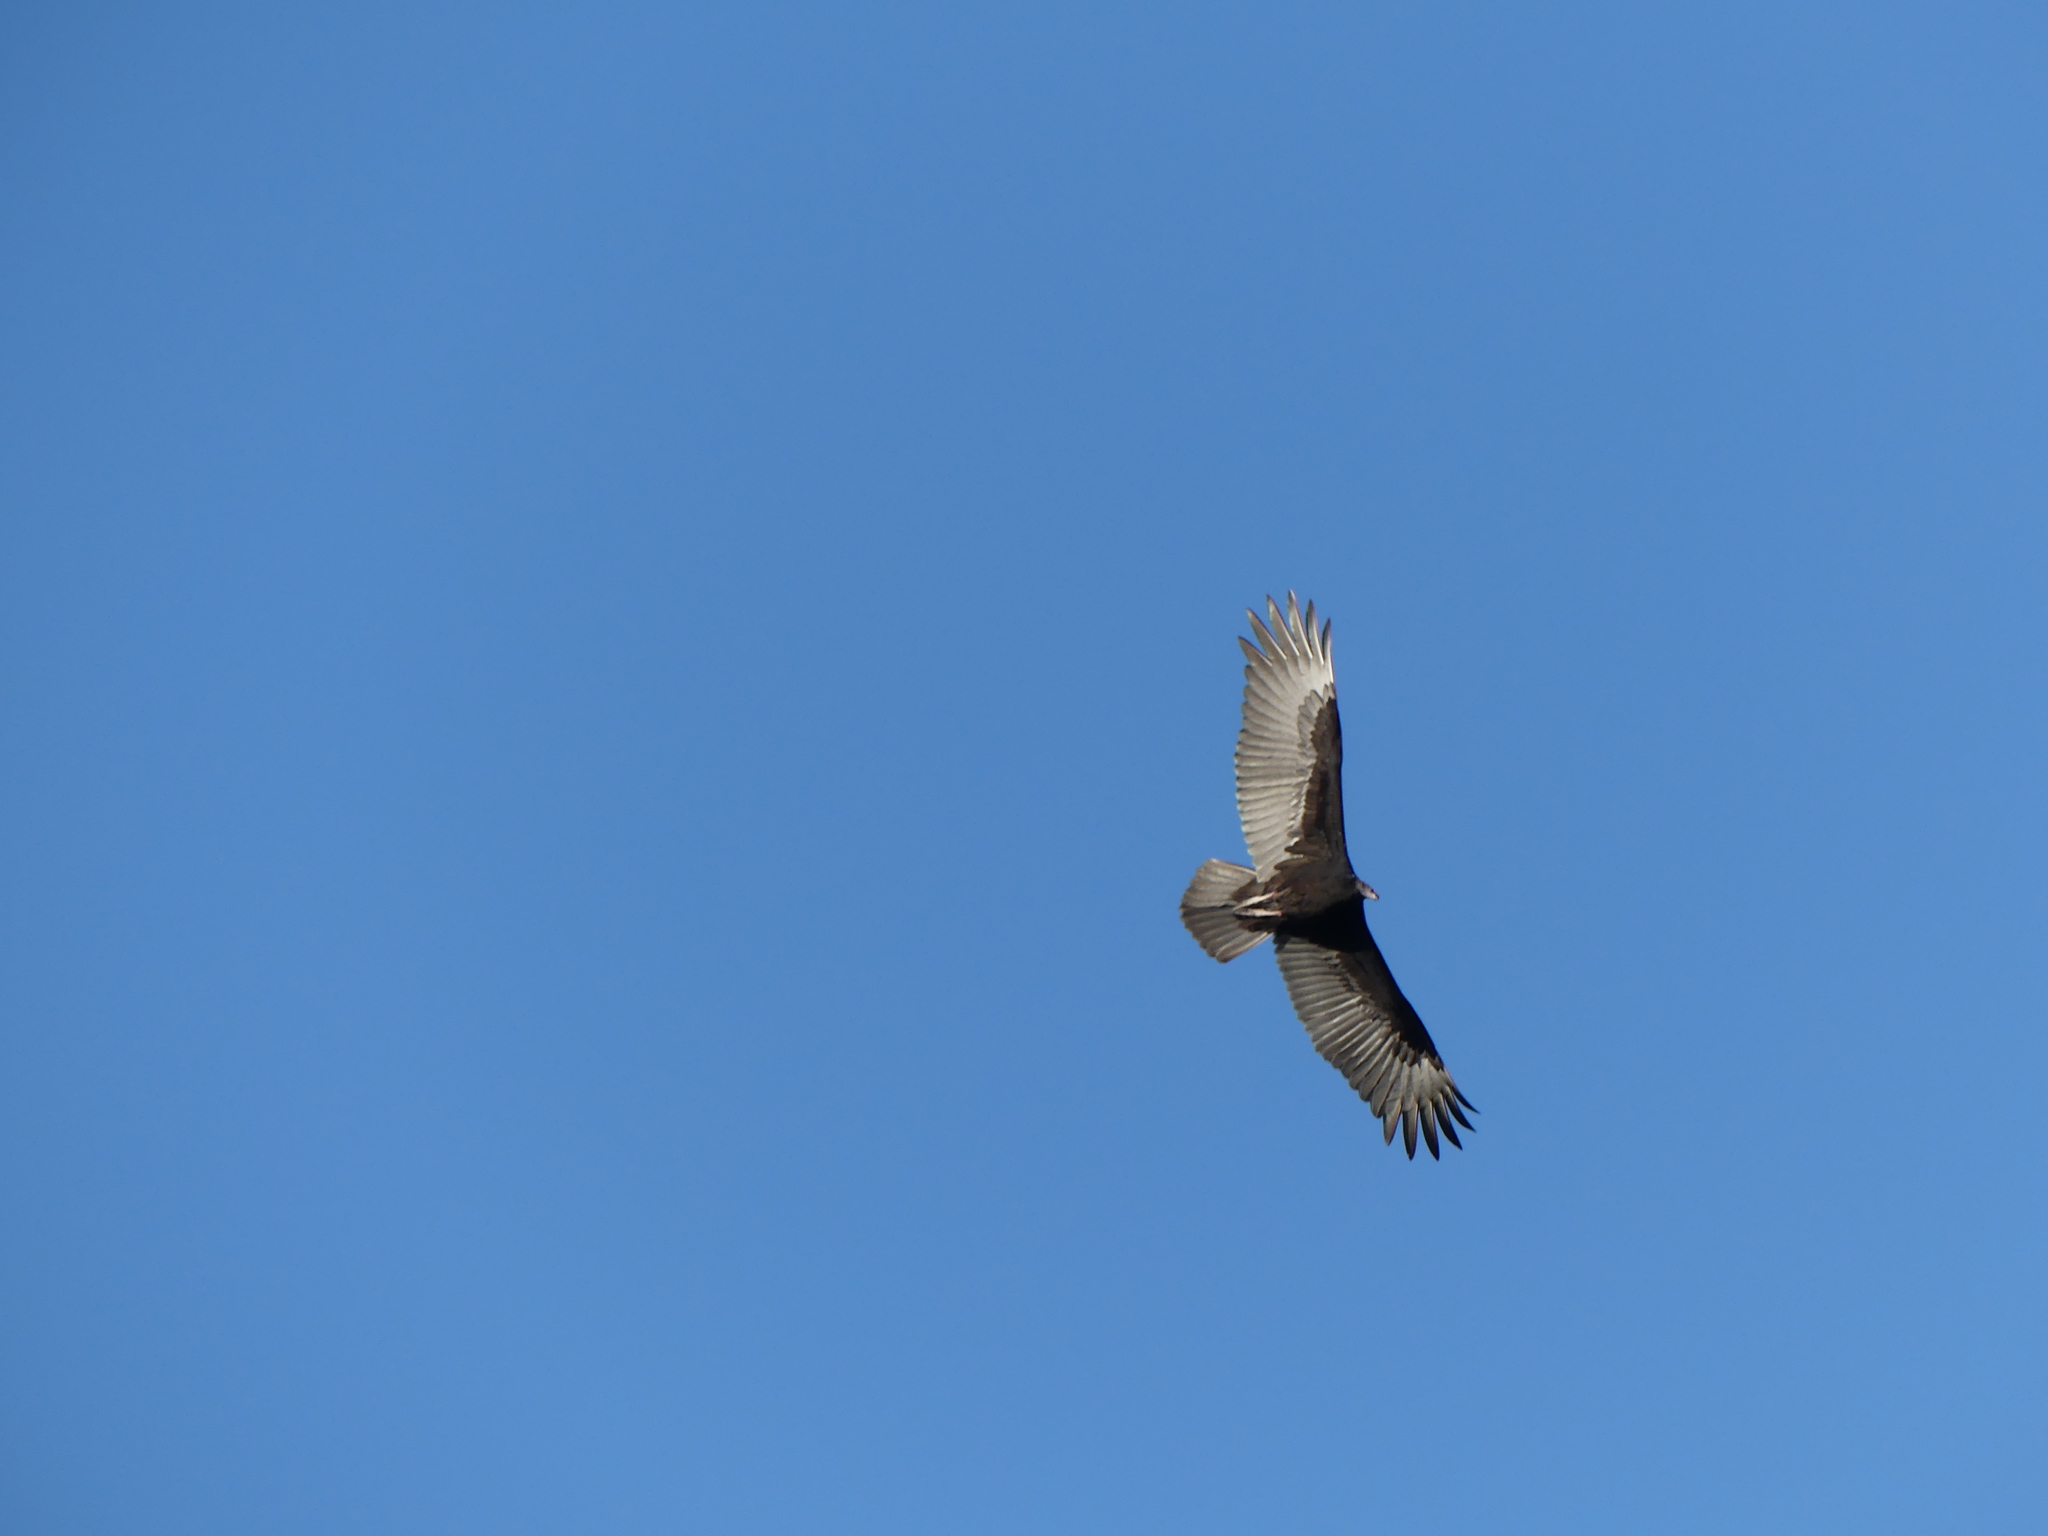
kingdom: Animalia
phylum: Chordata
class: Aves
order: Accipitriformes
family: Cathartidae
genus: Cathartes
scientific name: Cathartes aura
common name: Turkey vulture
